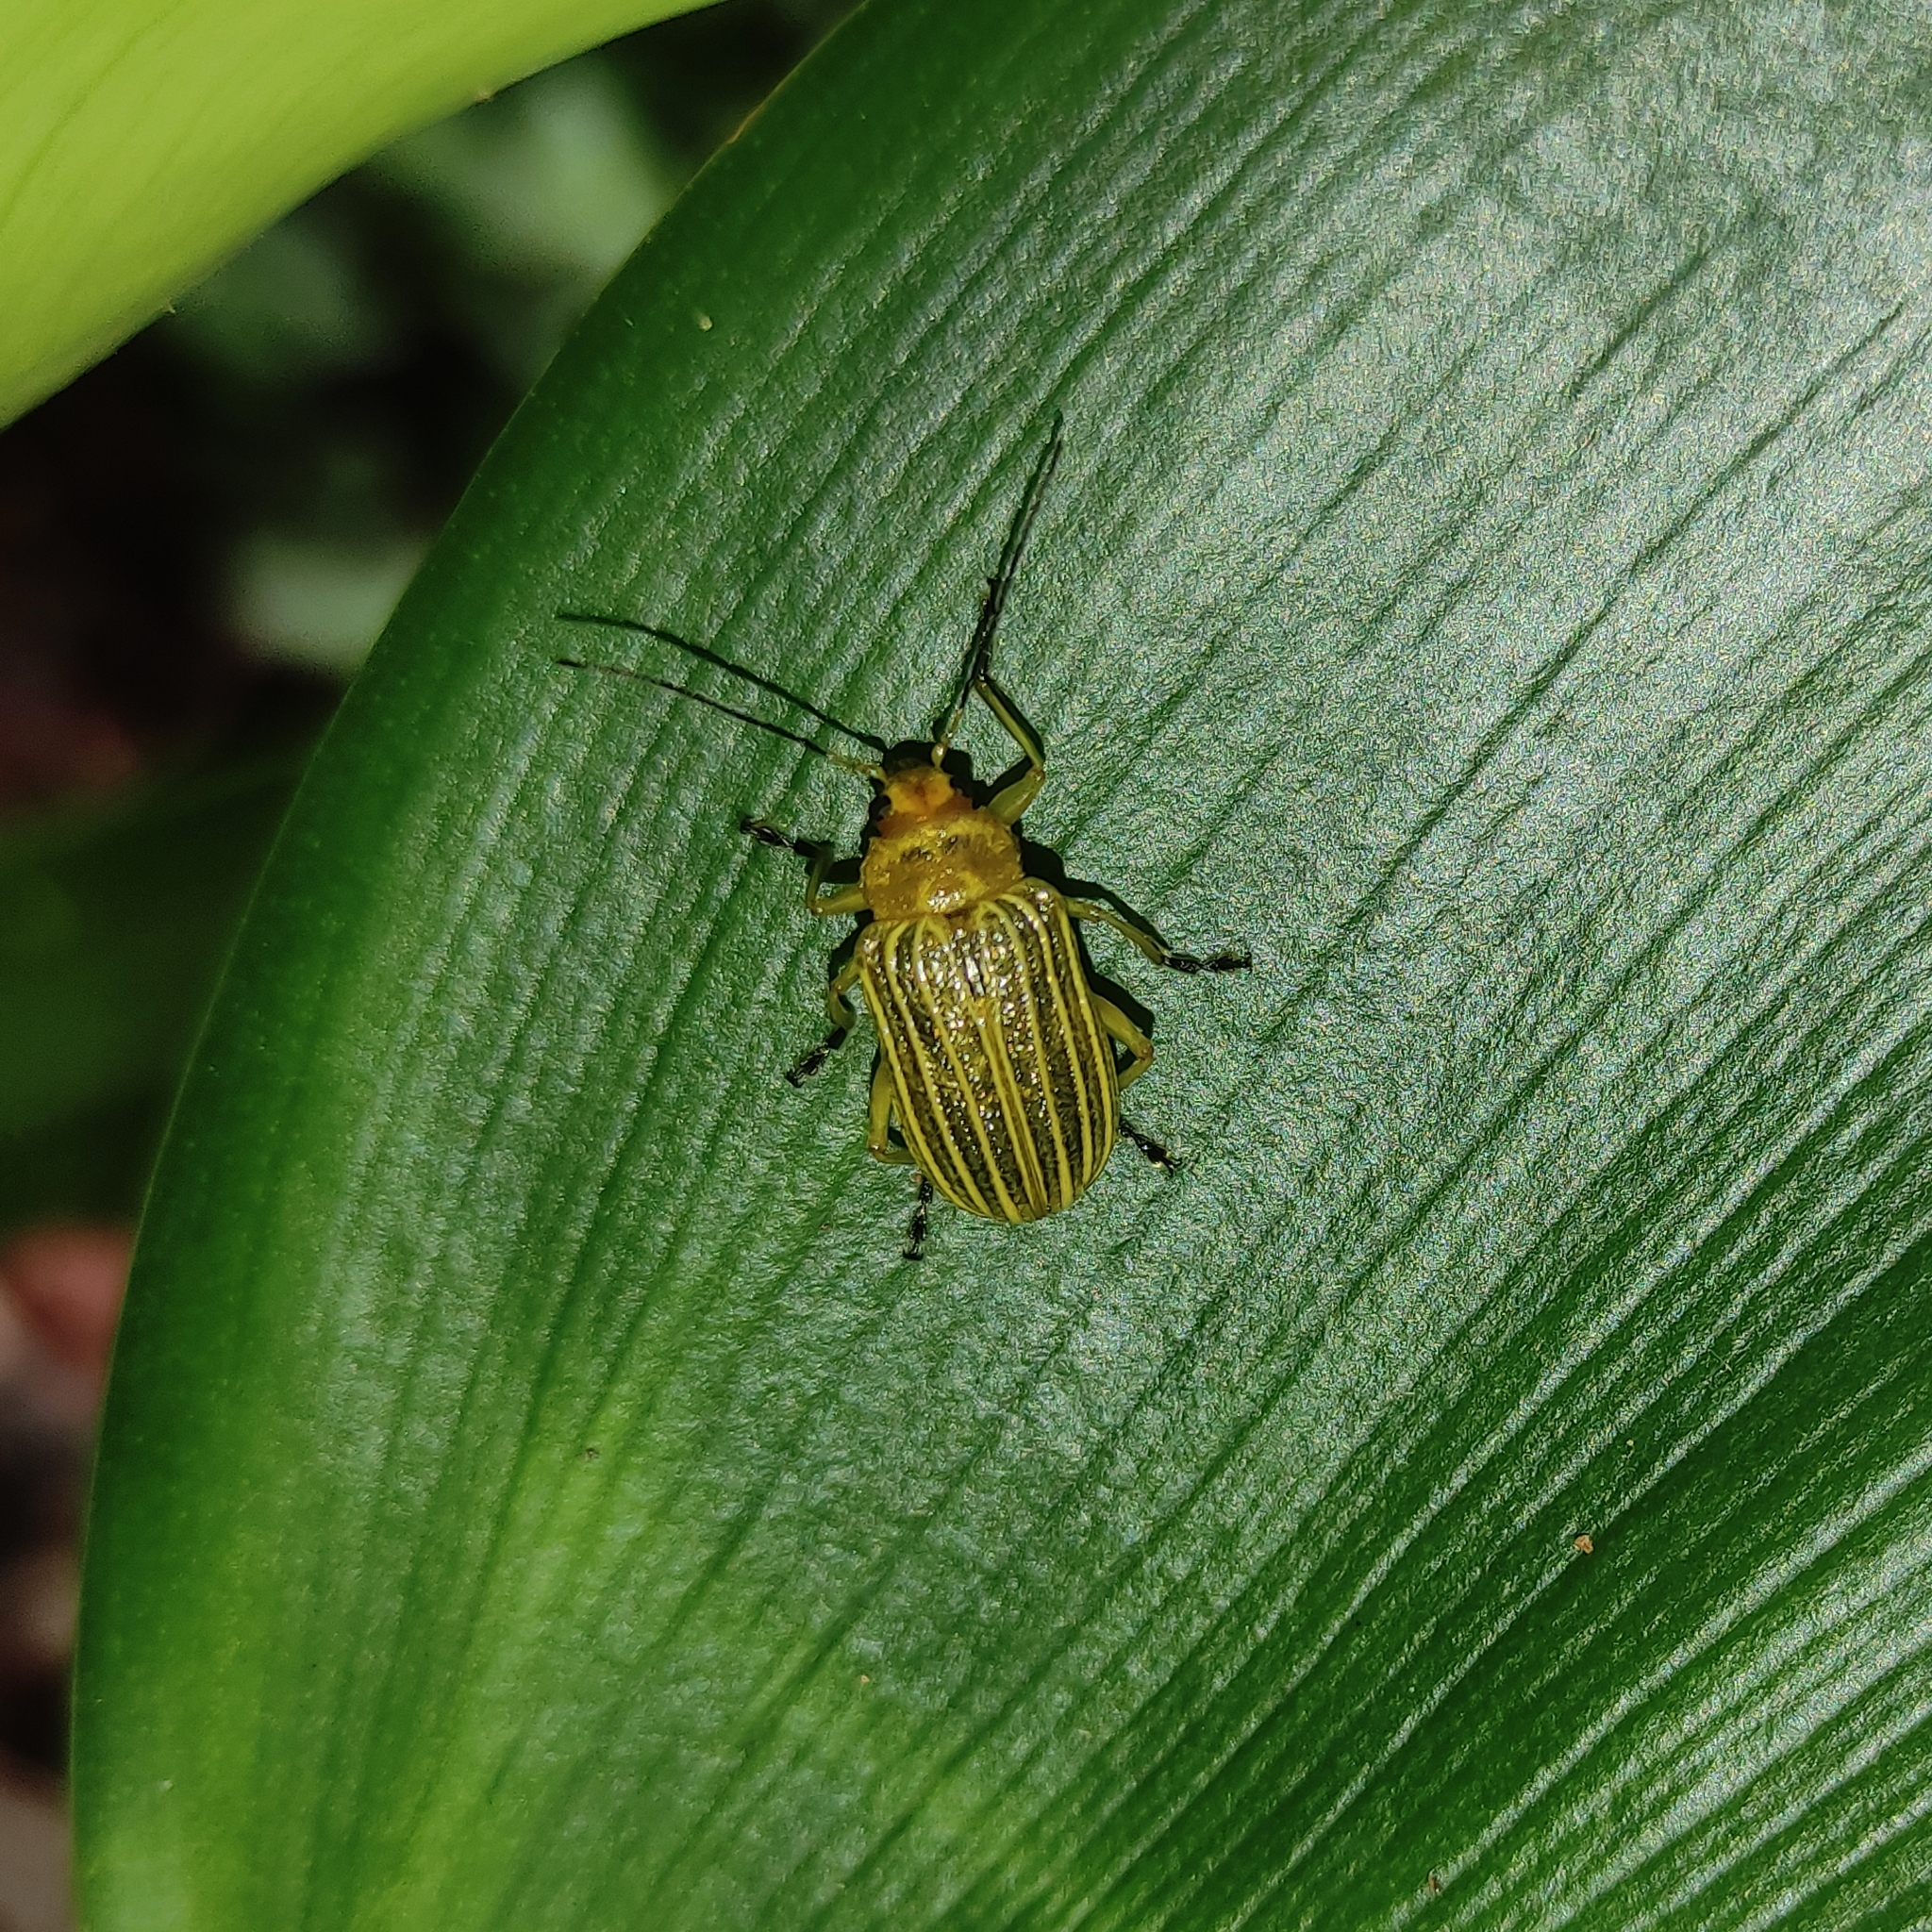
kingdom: Animalia
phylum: Arthropoda
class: Insecta
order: Coleoptera
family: Chrysomelidae
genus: Metaxyonycha
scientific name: Metaxyonycha
